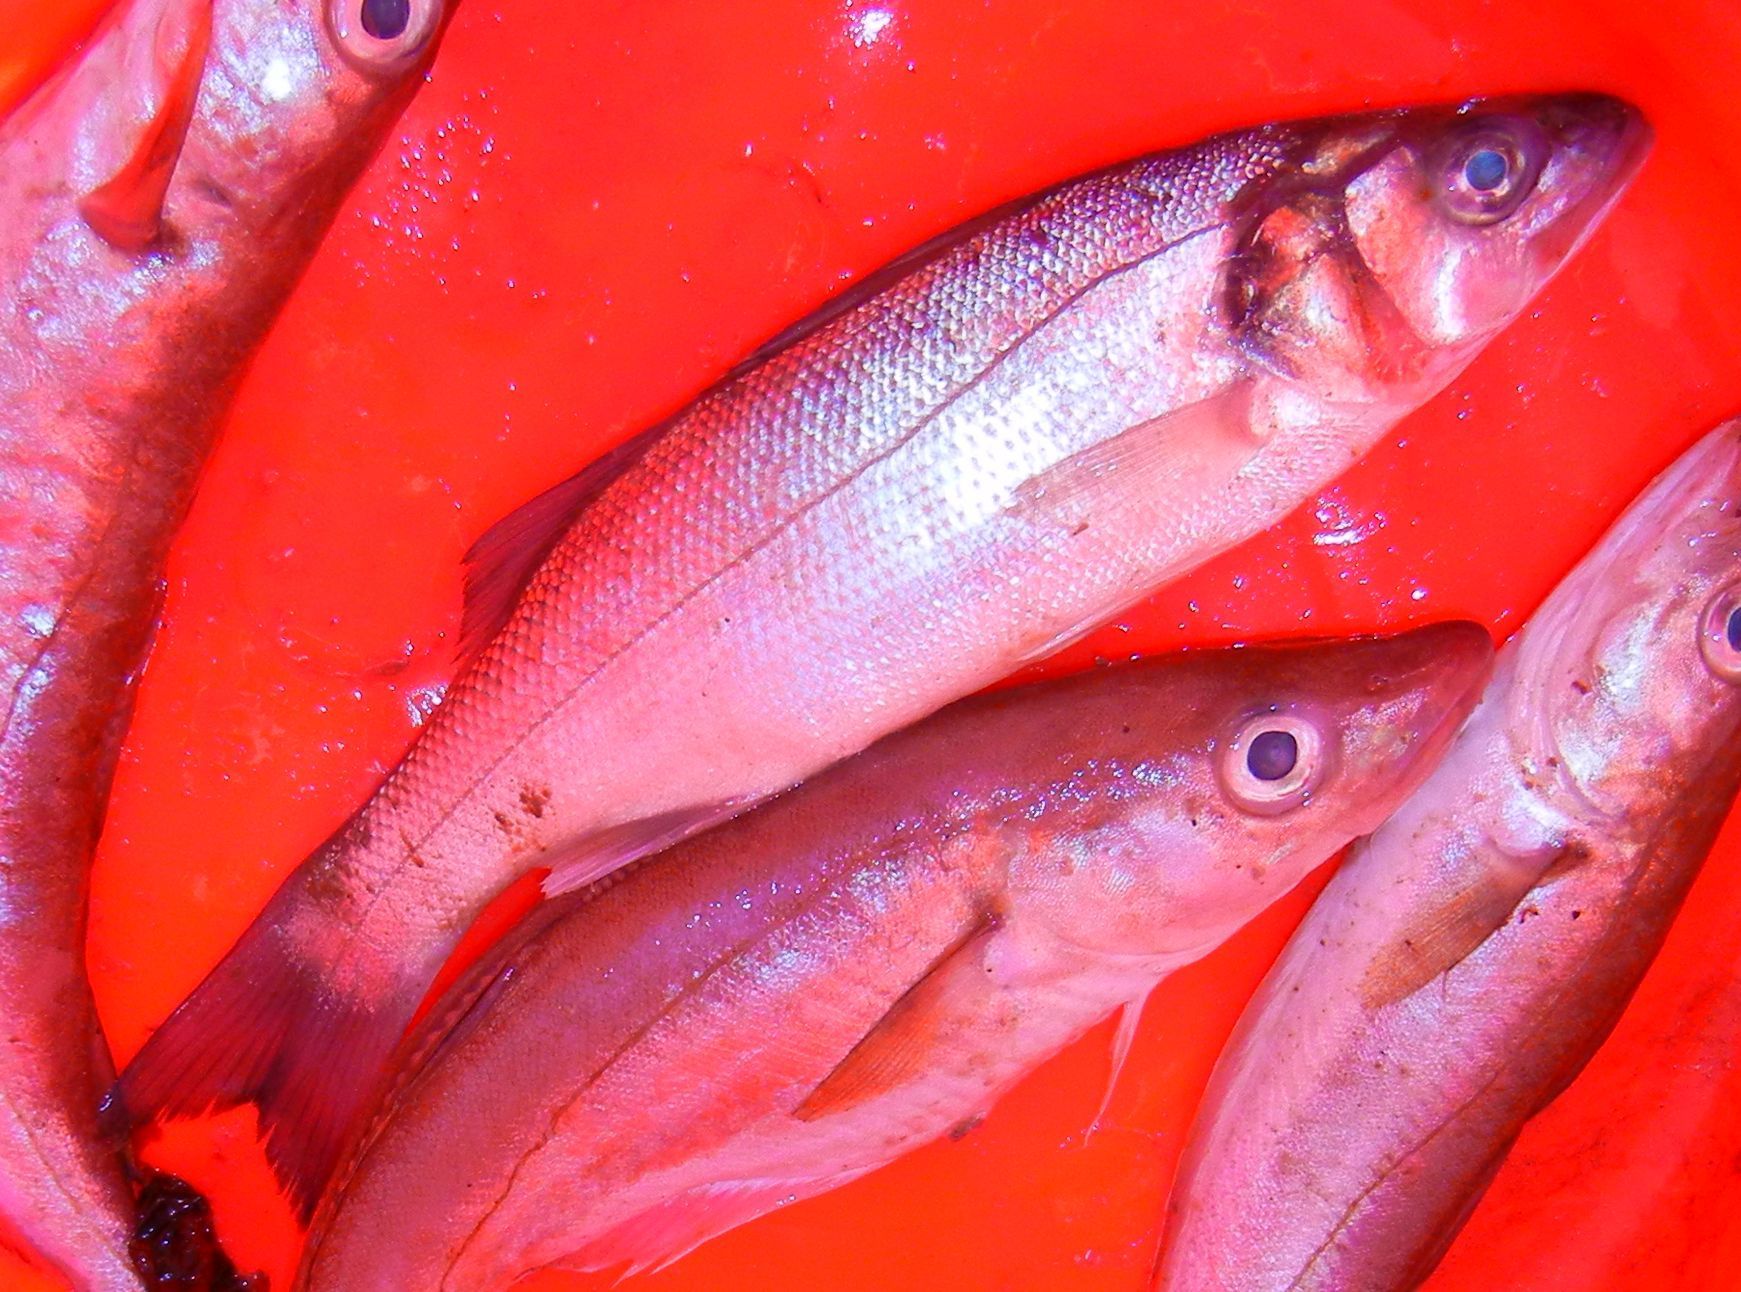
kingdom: Animalia
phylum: Chordata
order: Perciformes
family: Moronidae
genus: Dicentrarchus
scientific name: Dicentrarchus labrax
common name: European seabass
